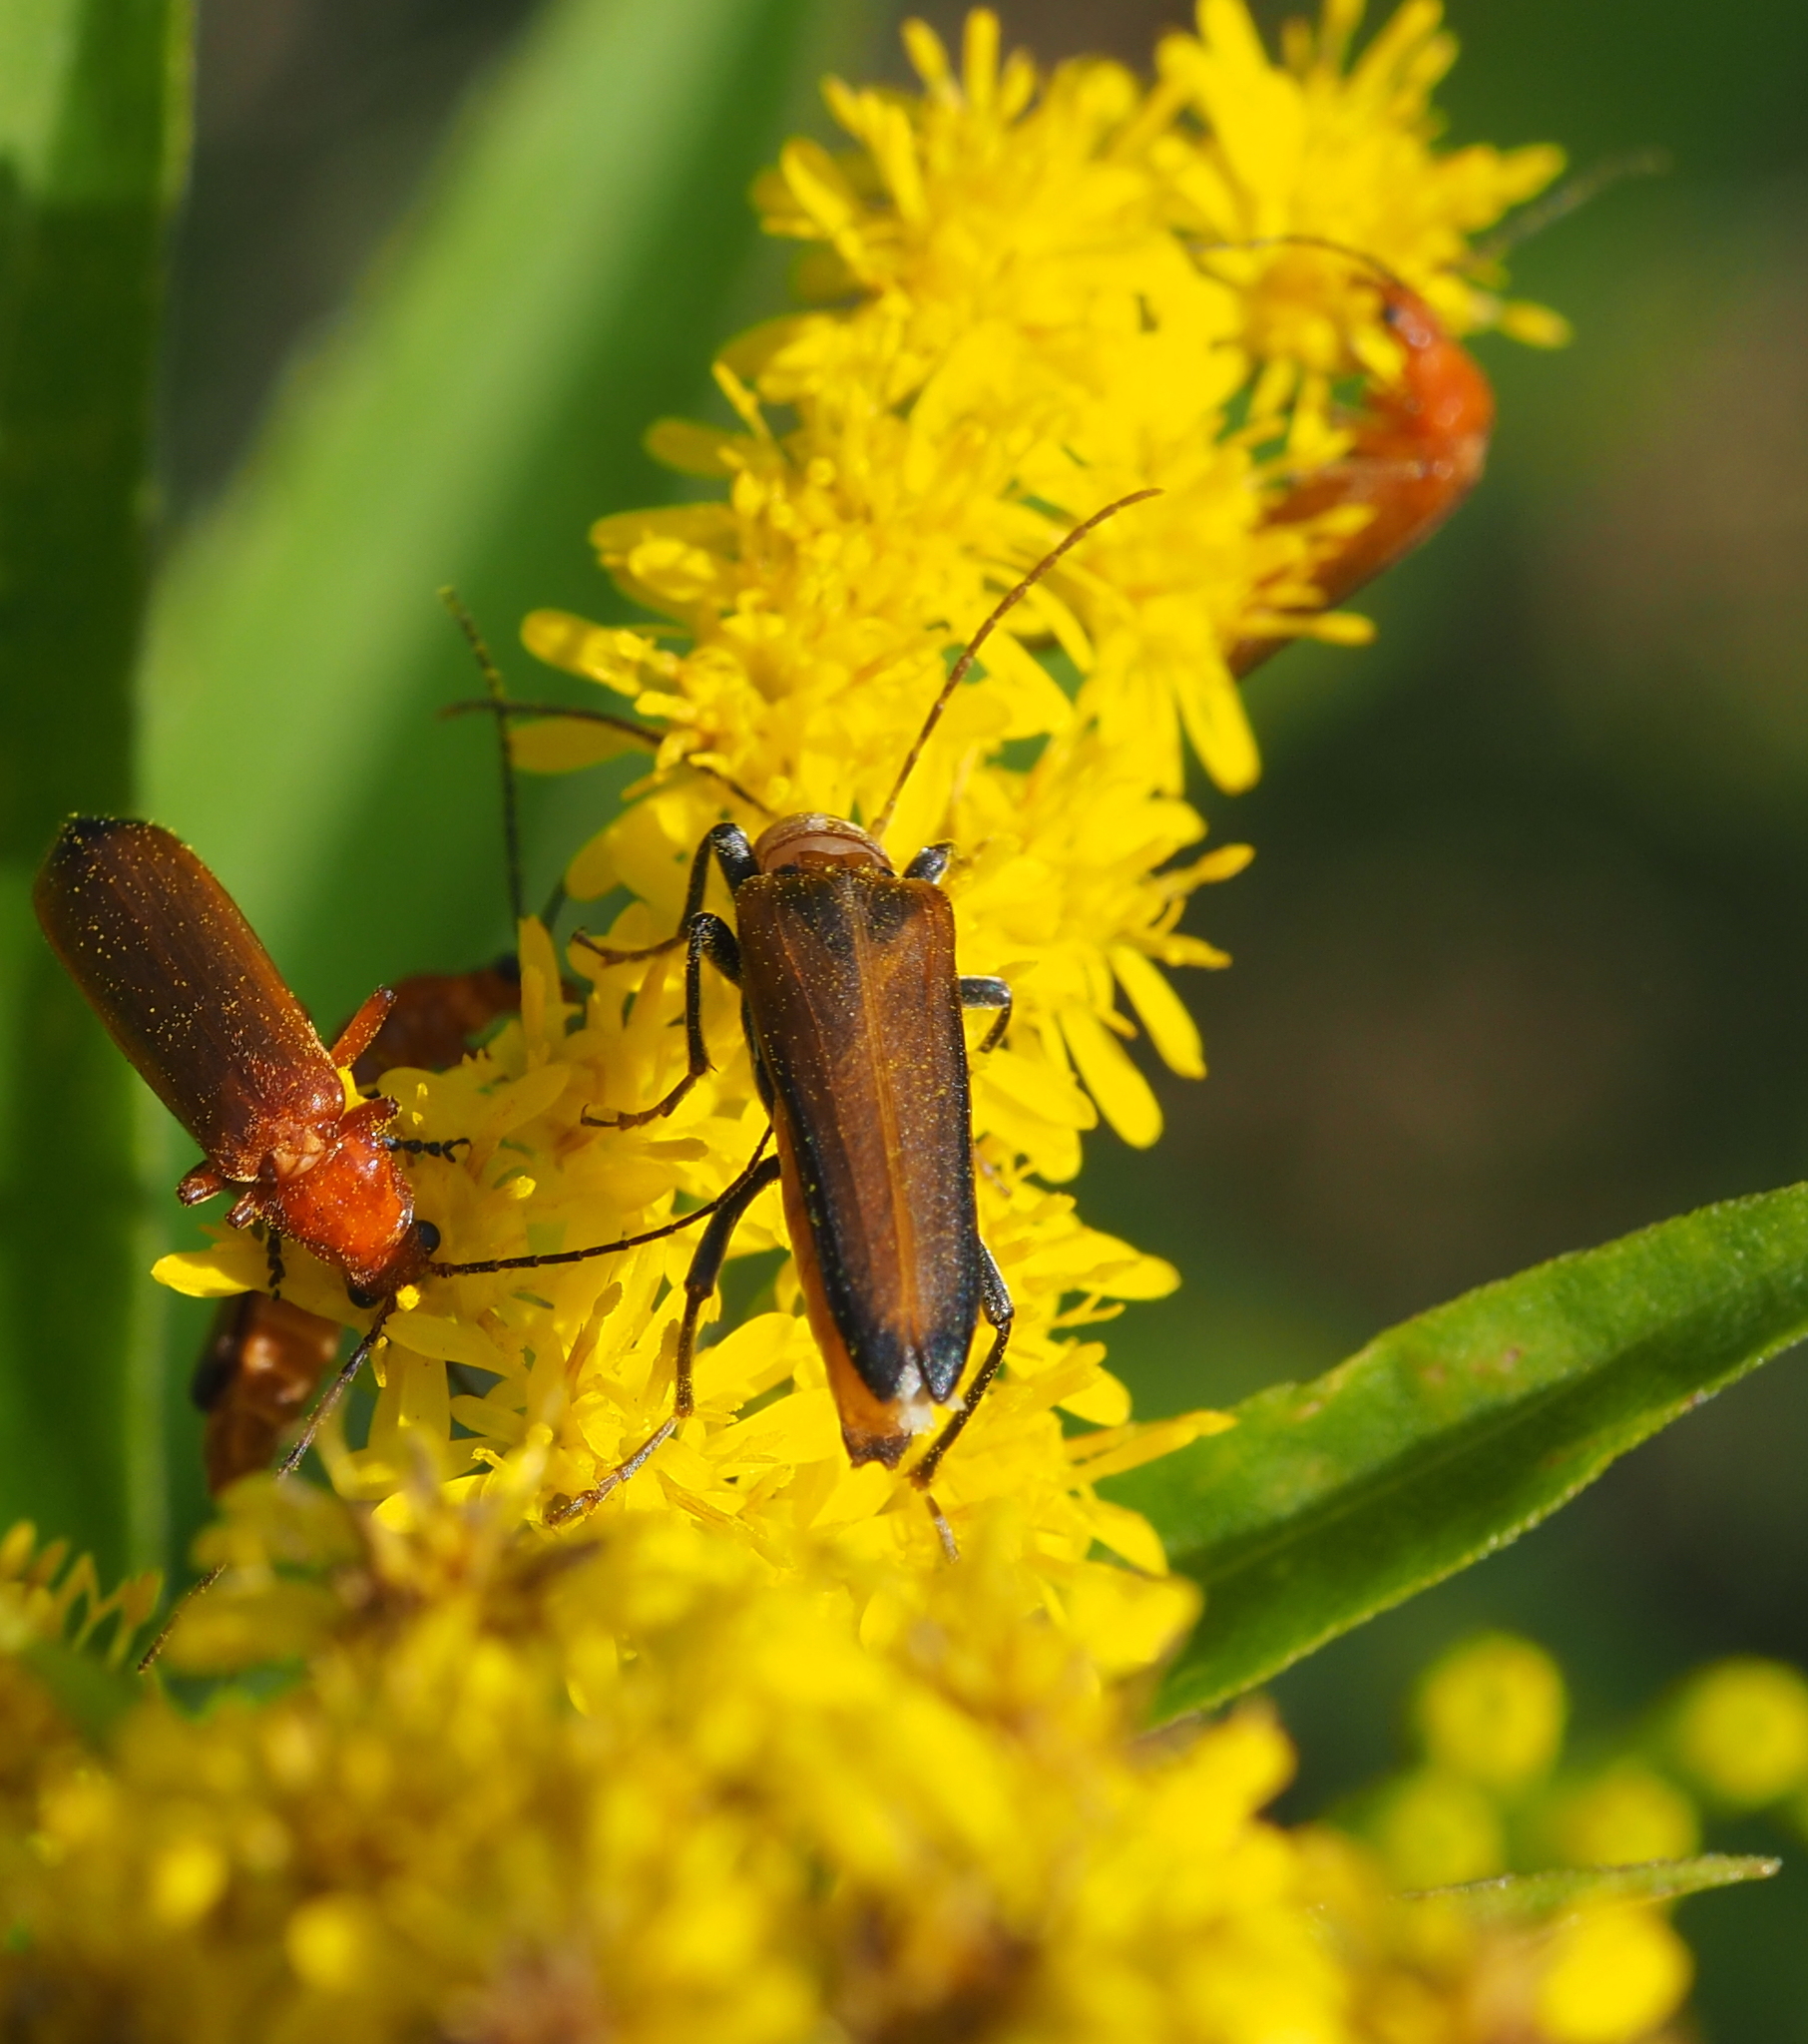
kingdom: Animalia
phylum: Arthropoda
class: Insecta
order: Coleoptera
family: Oedemeridae
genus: Anogcodes
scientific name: Anogcodes rufiventris
